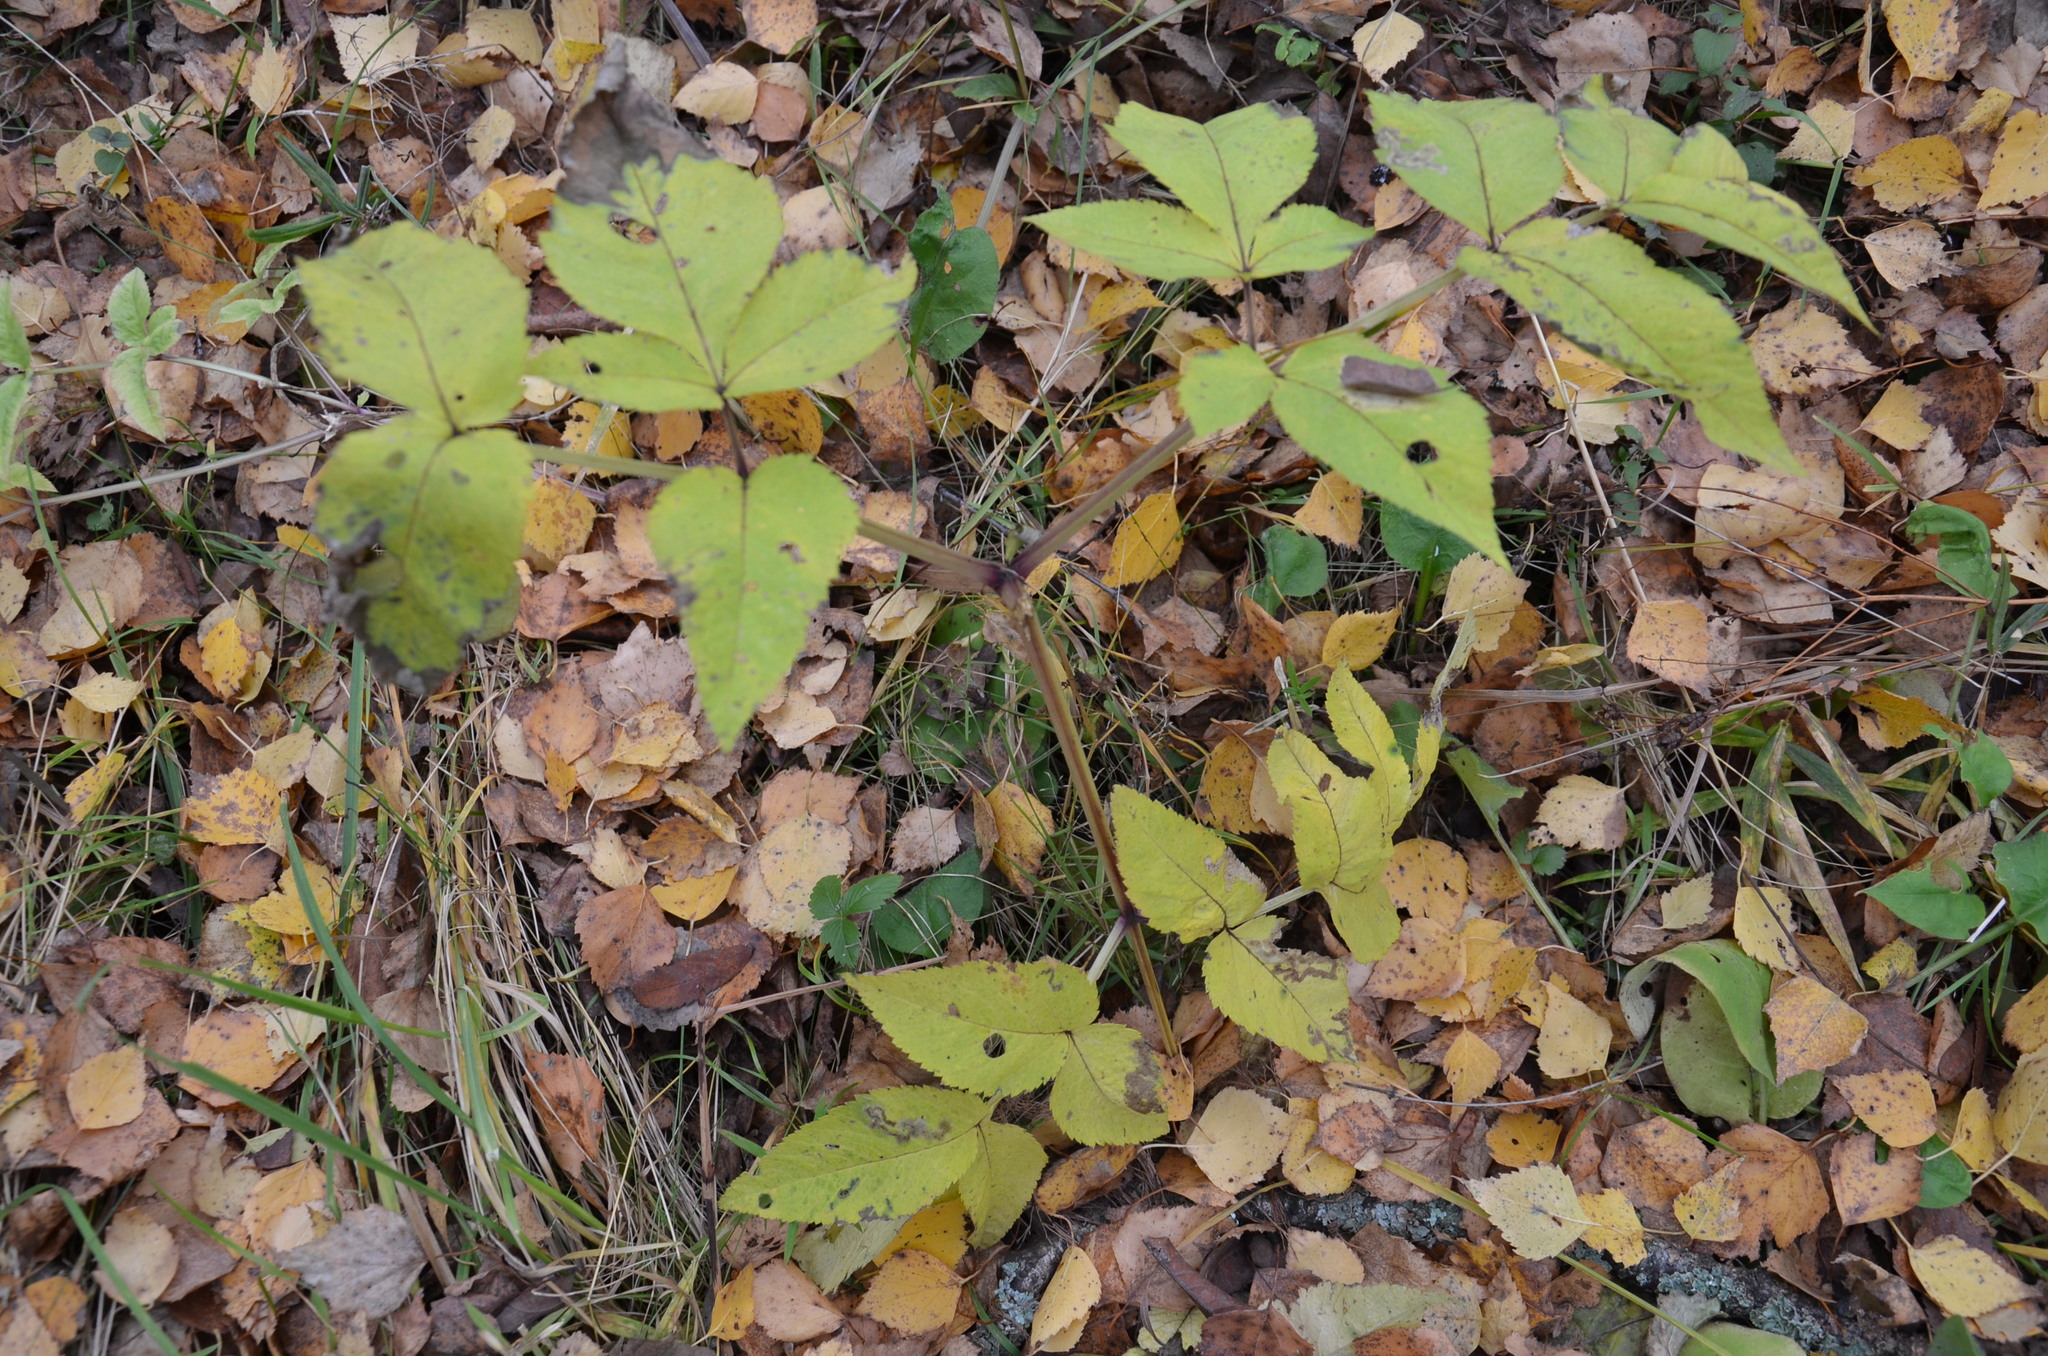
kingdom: Plantae
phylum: Tracheophyta
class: Magnoliopsida
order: Apiales
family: Apiaceae
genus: Angelica
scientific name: Angelica sylvestris
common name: Wild angelica
